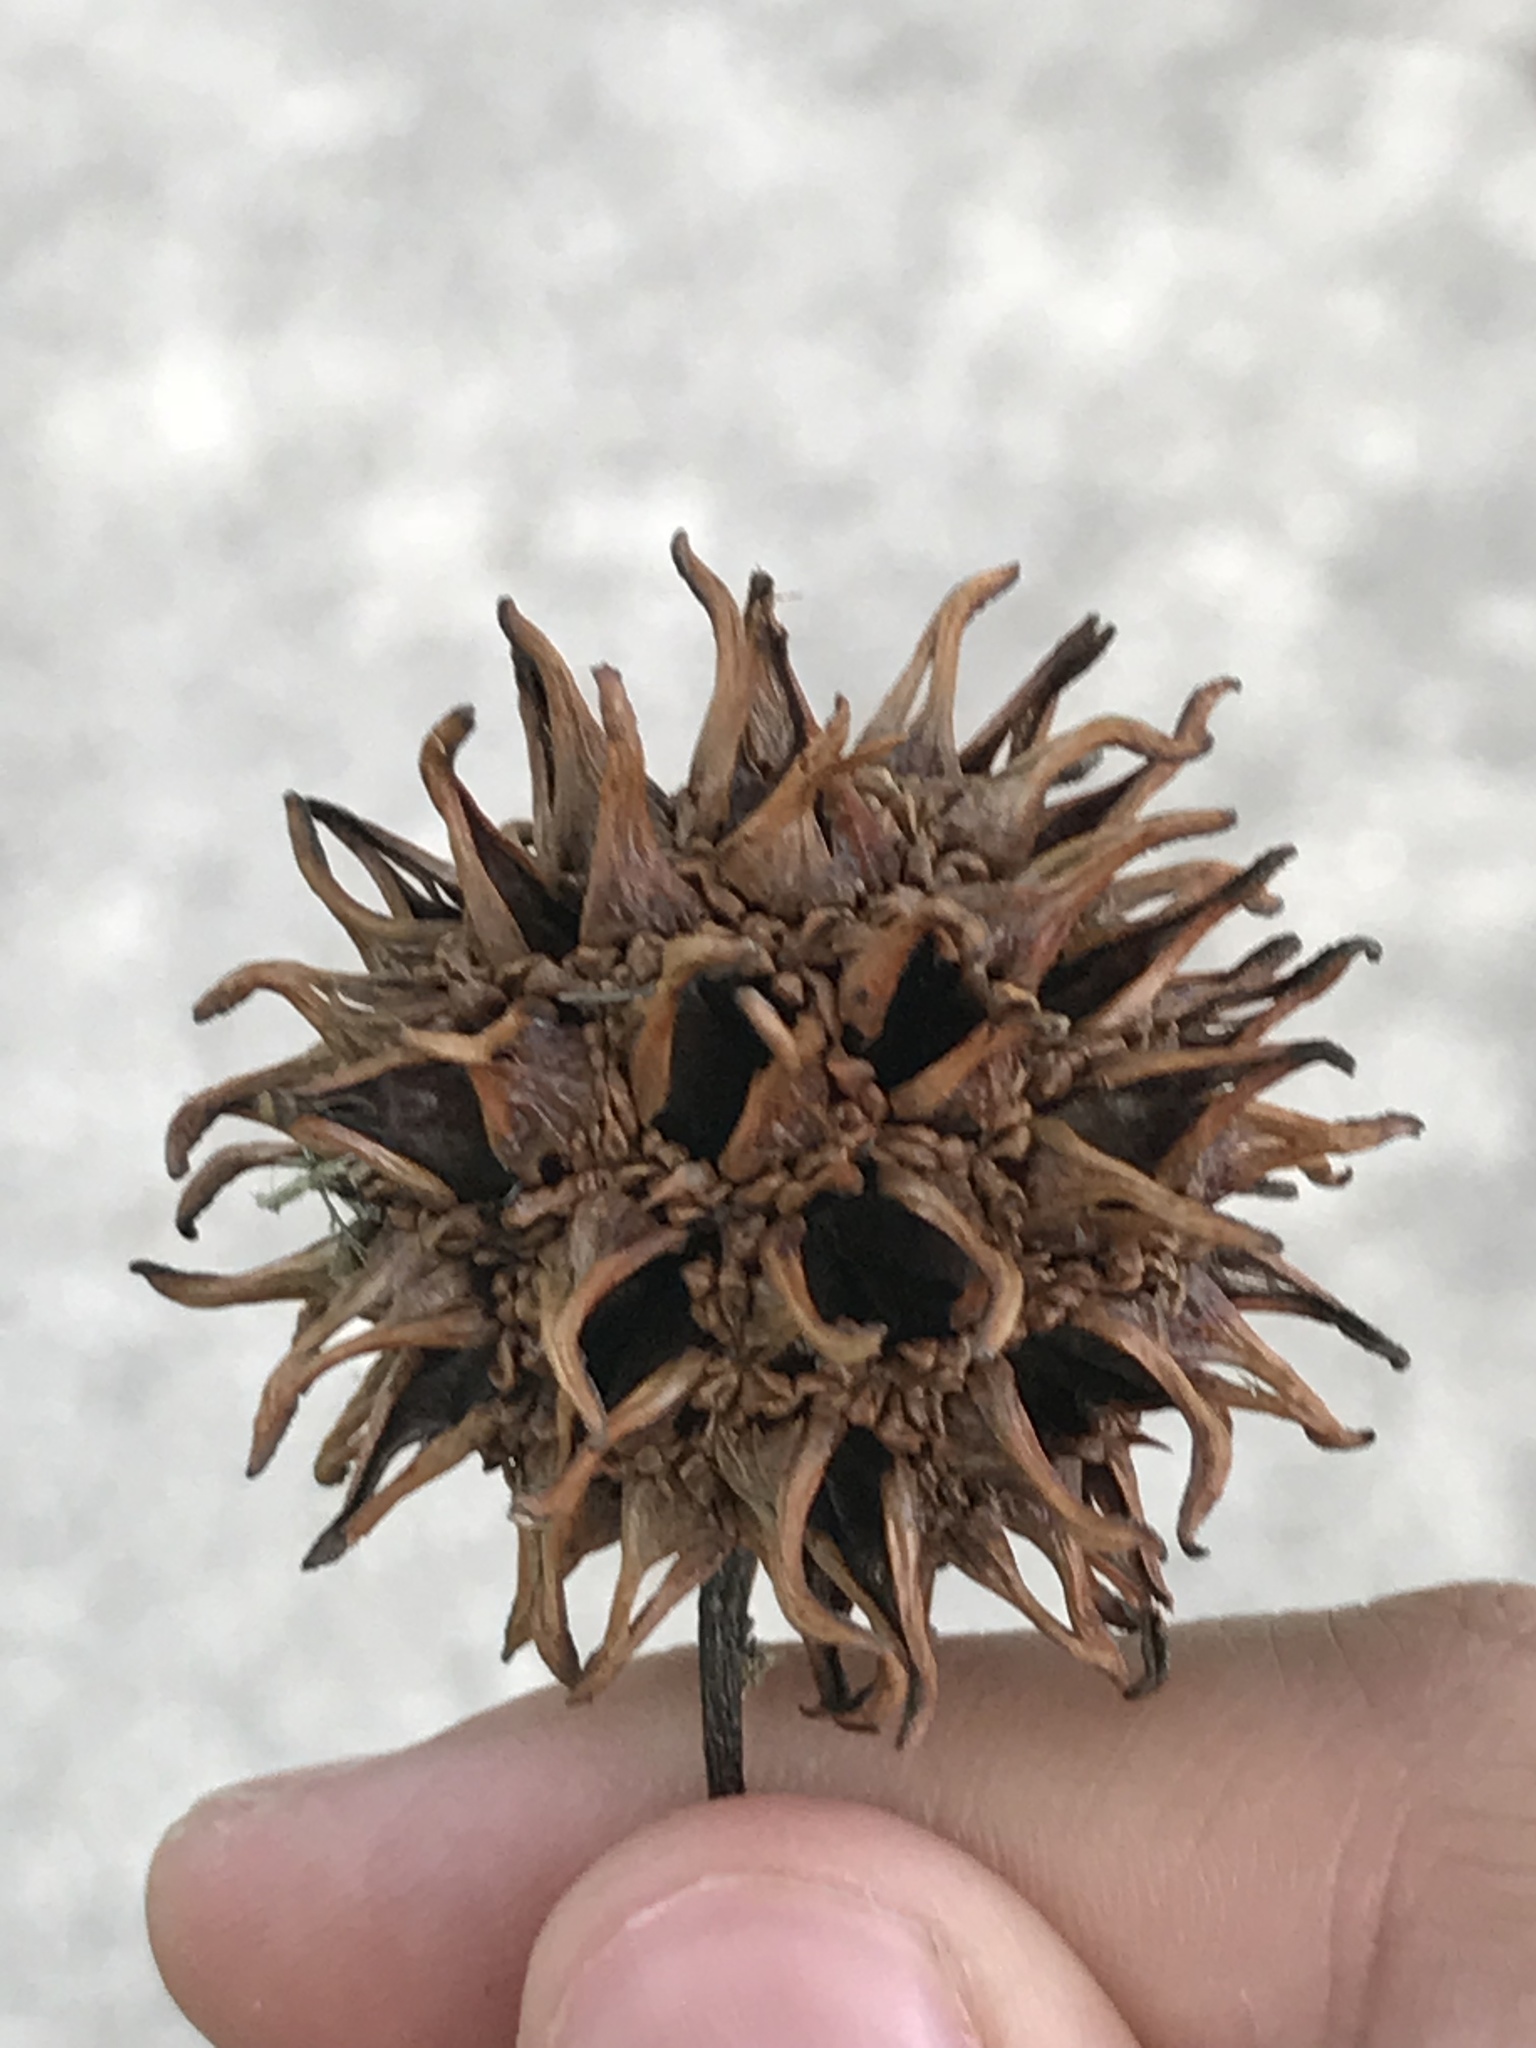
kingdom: Plantae
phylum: Tracheophyta
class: Magnoliopsida
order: Saxifragales
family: Altingiaceae
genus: Liquidambar
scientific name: Liquidambar styraciflua
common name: Sweet gum
